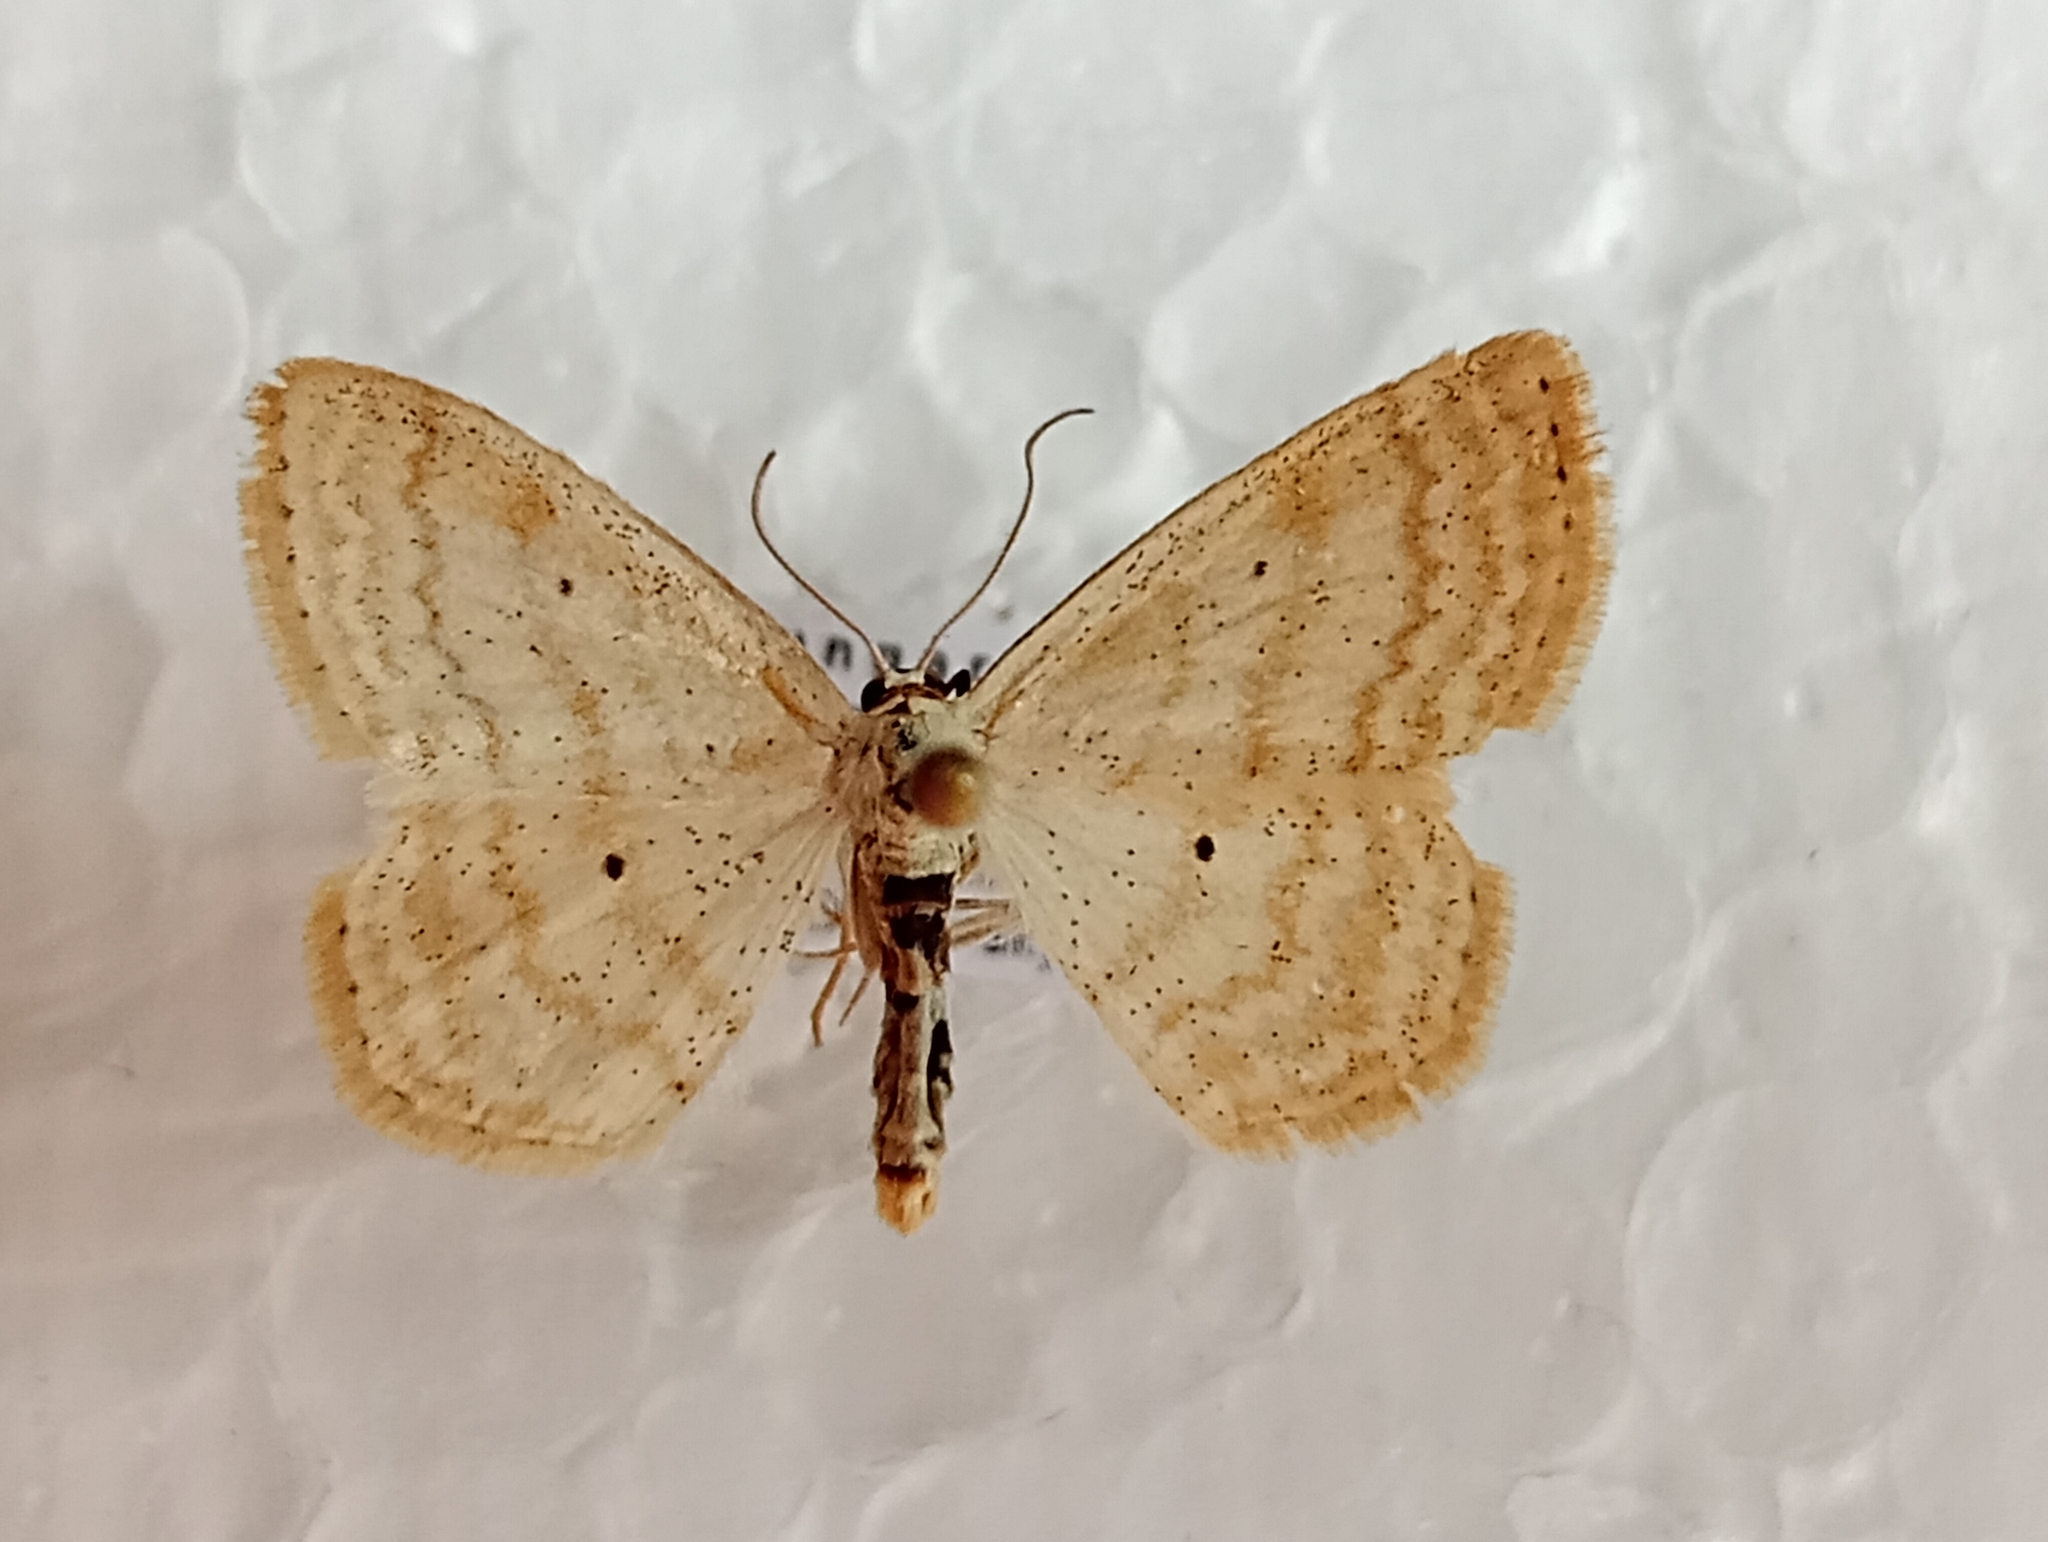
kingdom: Animalia
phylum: Arthropoda
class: Insecta
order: Lepidoptera
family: Geometridae
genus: Scopula
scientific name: Scopula immutata
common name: Lesser cream wave
